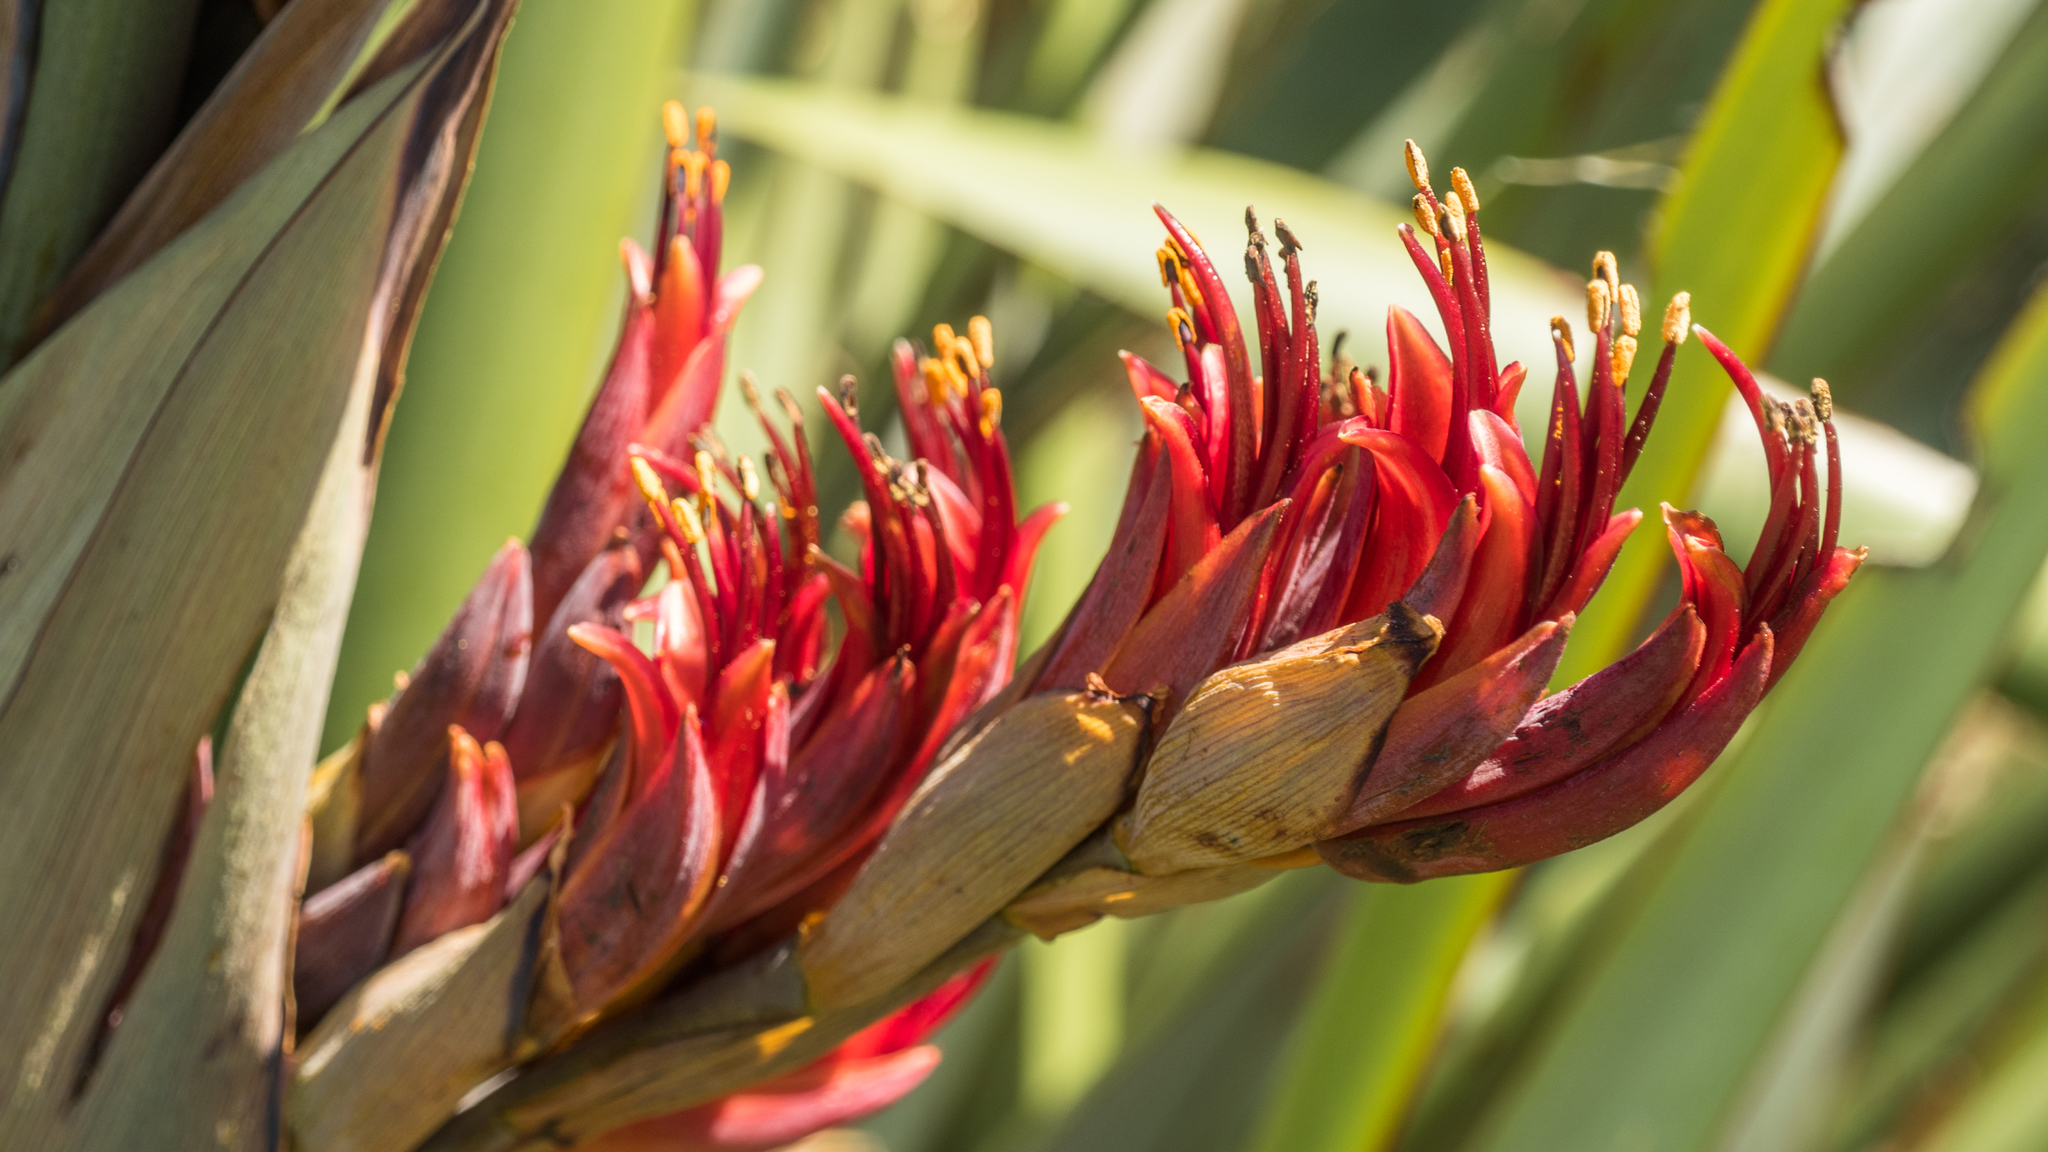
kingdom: Plantae
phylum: Tracheophyta
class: Liliopsida
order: Asparagales
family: Asphodelaceae
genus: Phormium
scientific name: Phormium tenax
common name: New zealand flax
